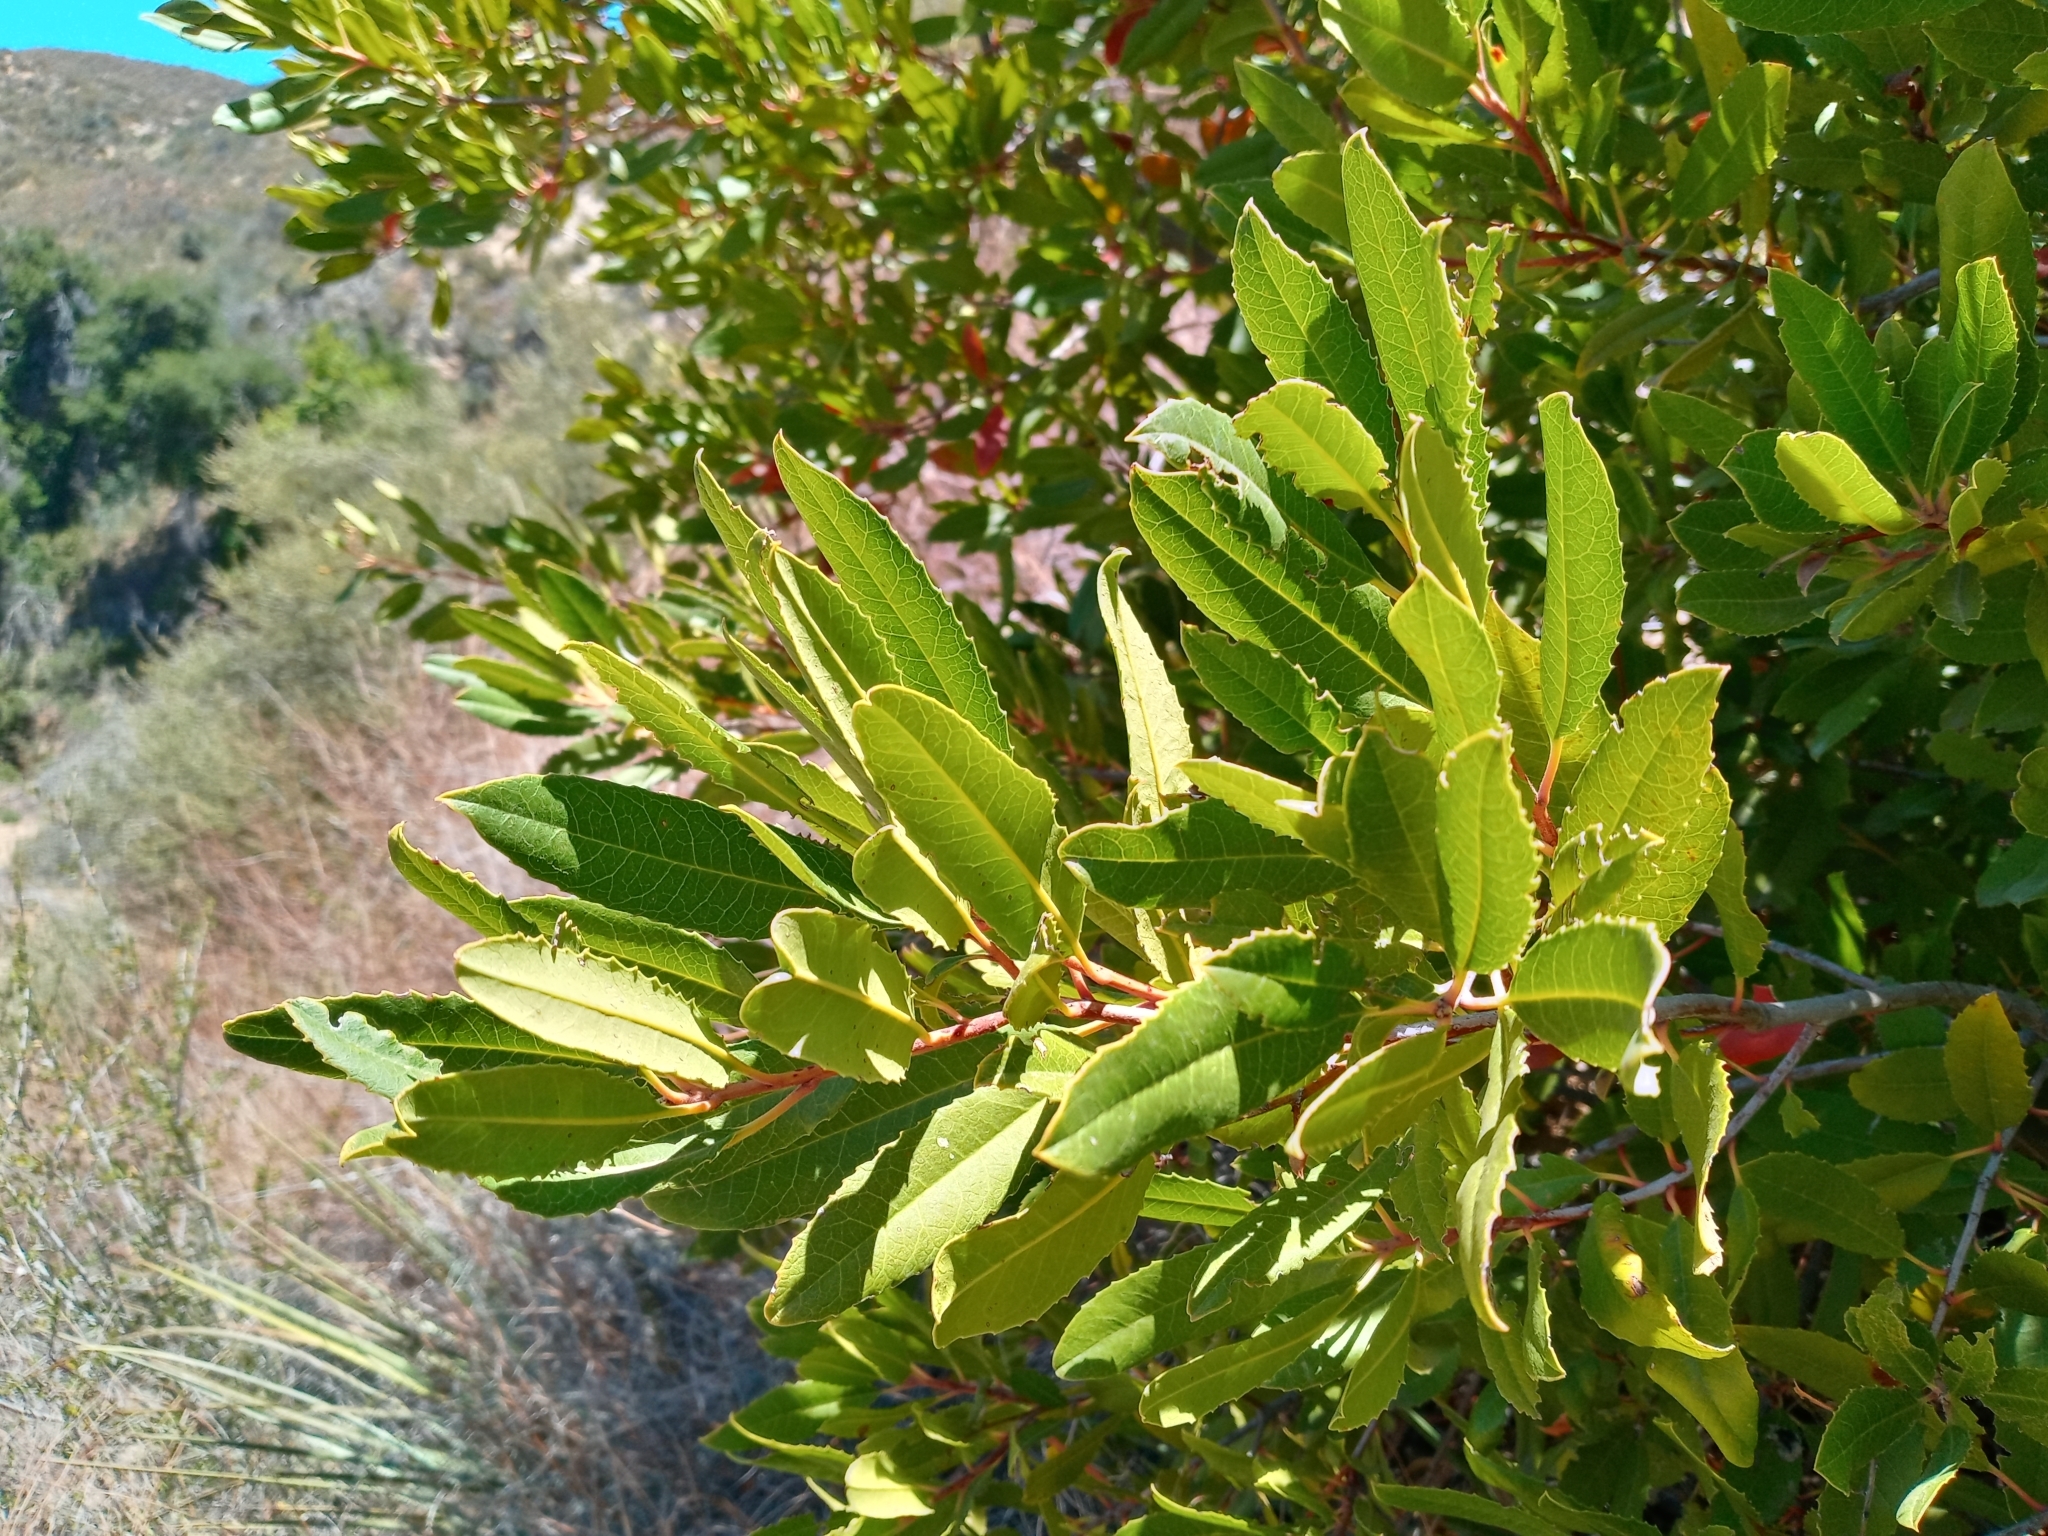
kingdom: Plantae
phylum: Tracheophyta
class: Magnoliopsida
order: Rosales
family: Rosaceae
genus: Heteromeles
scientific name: Heteromeles arbutifolia
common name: California-holly
